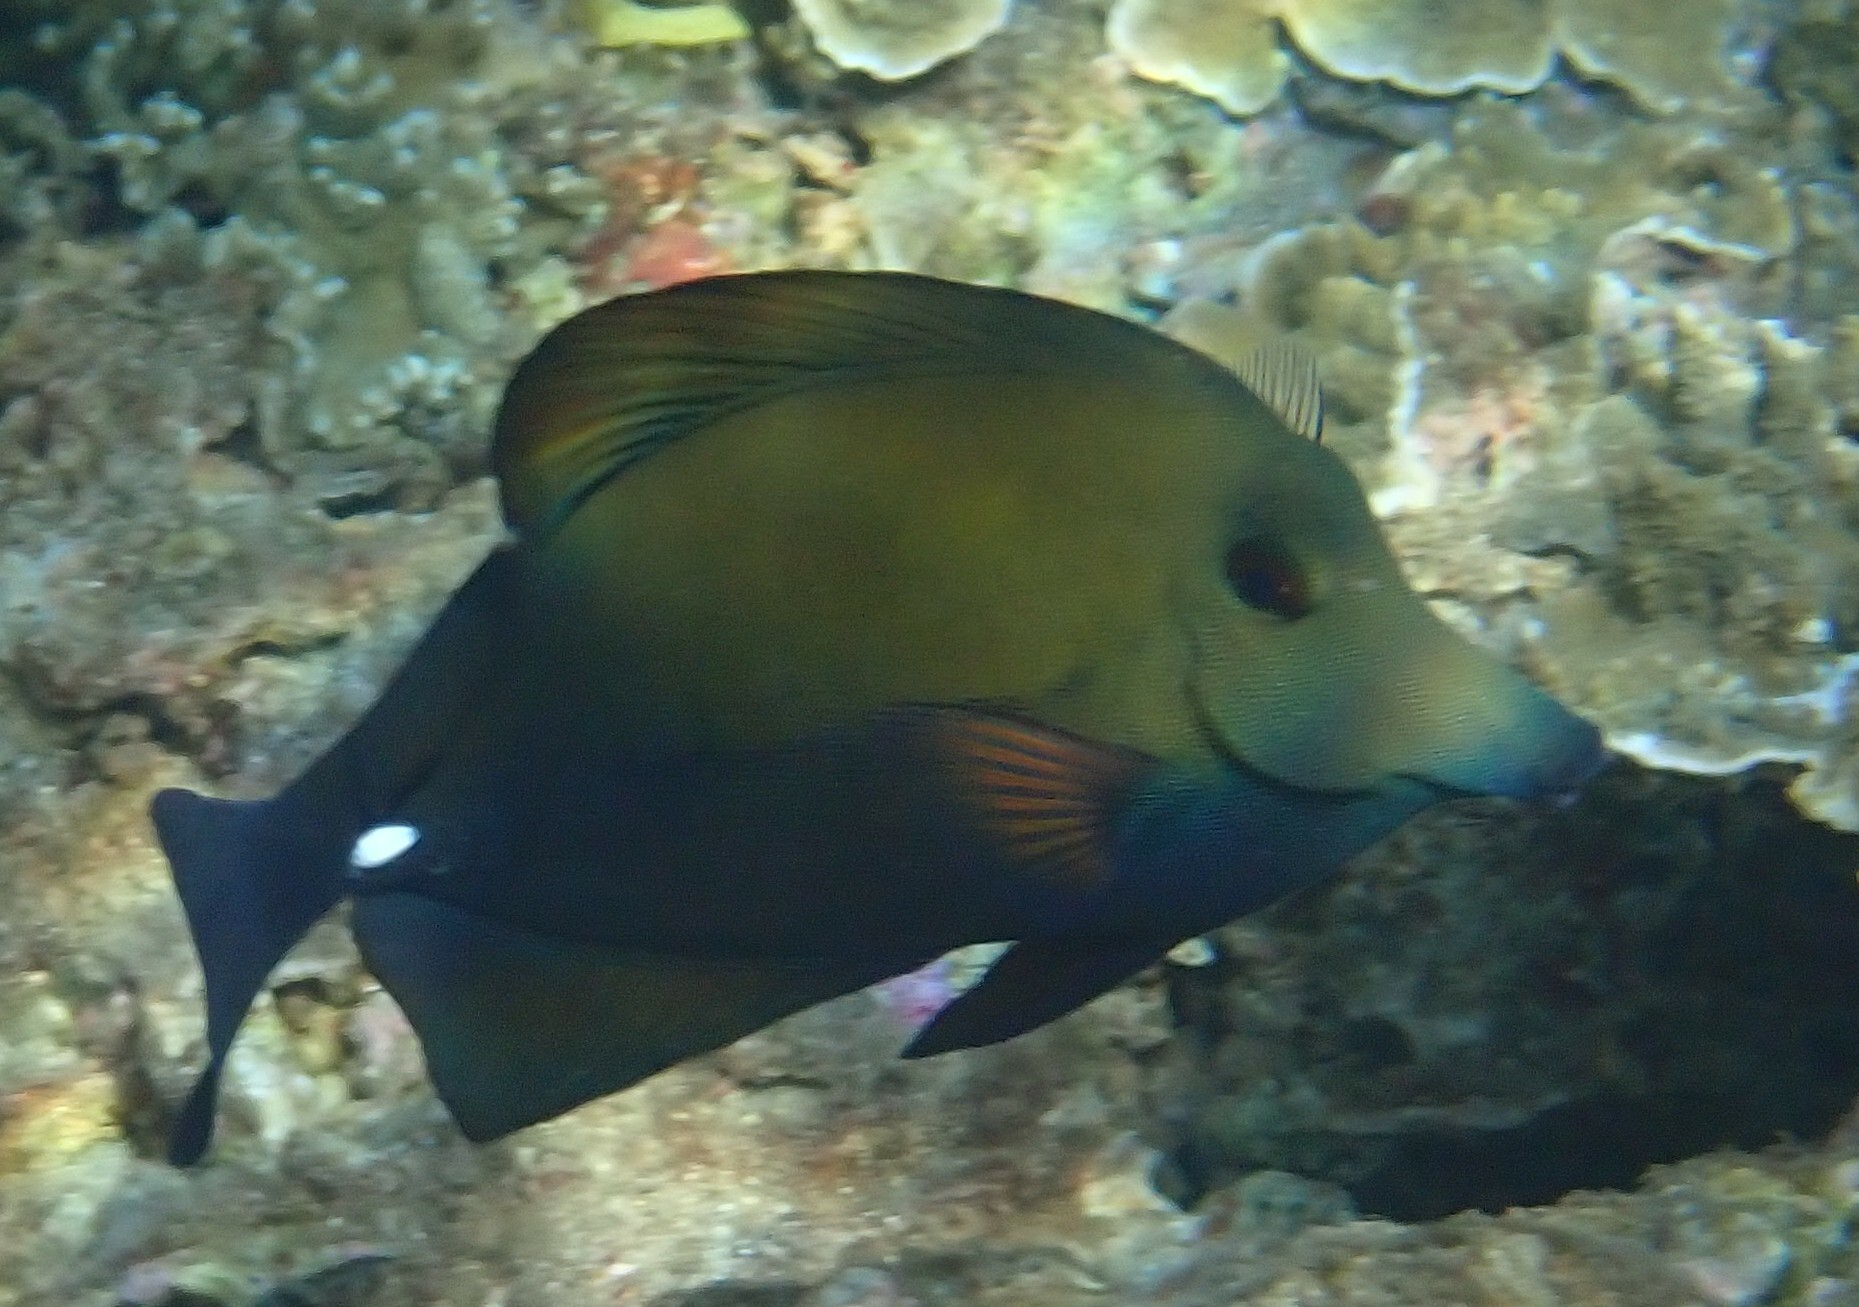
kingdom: Animalia
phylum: Chordata
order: Perciformes
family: Acanthuridae
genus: Zebrasoma
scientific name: Zebrasoma scopas
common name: Twotone tang
